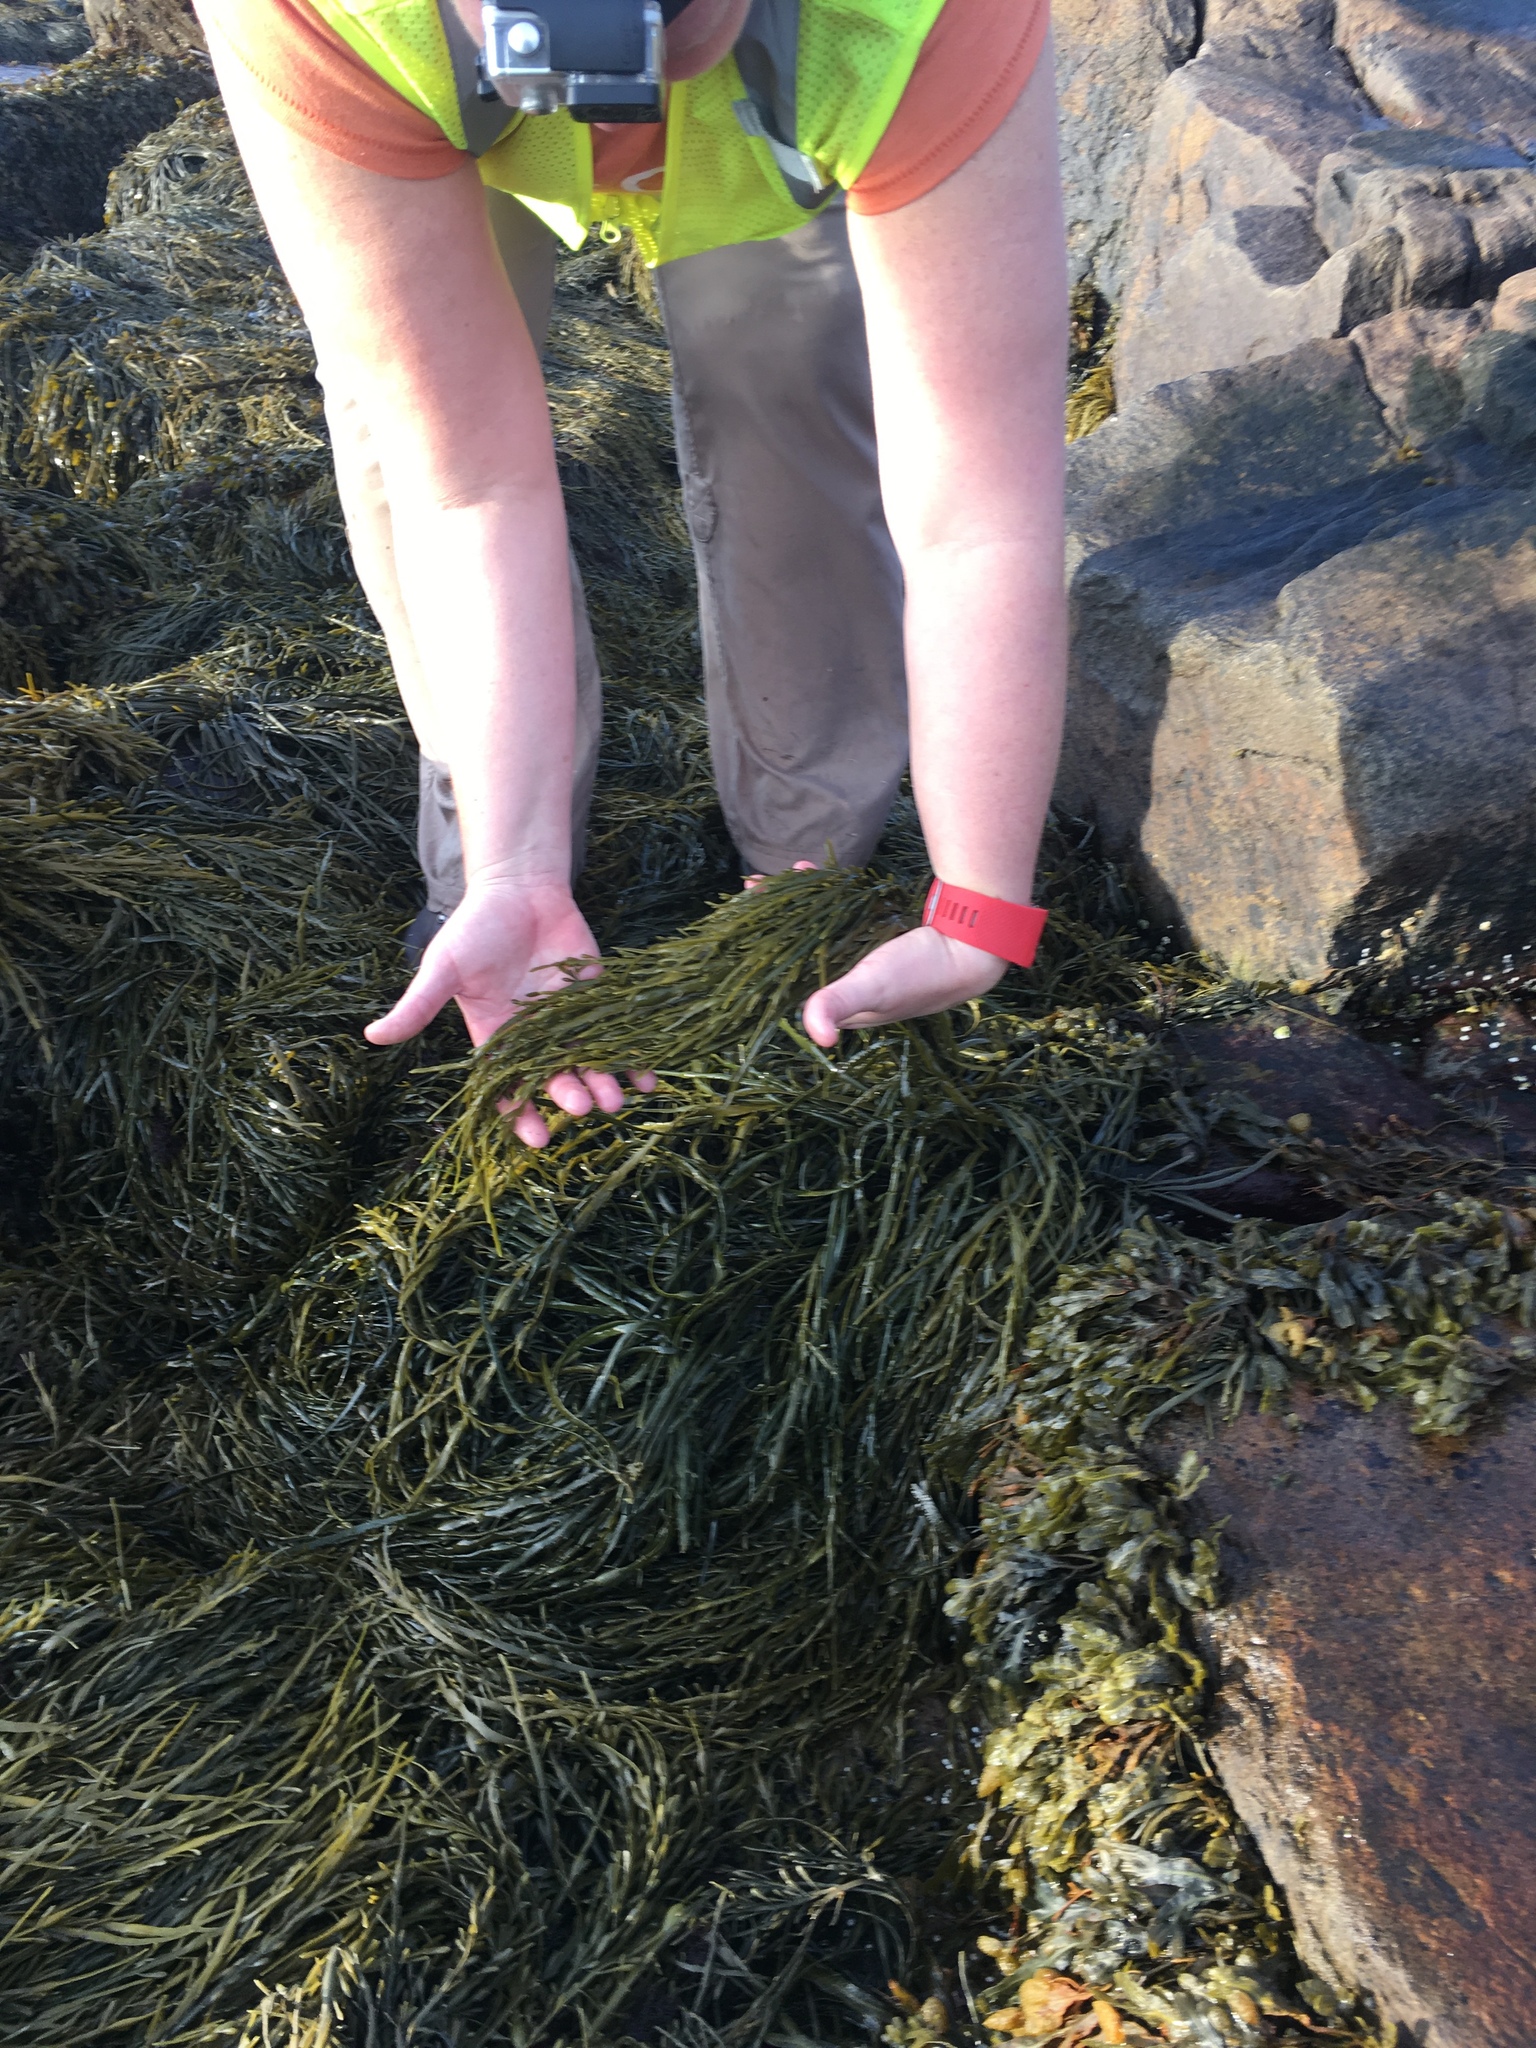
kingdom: Chromista
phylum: Ochrophyta
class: Phaeophyceae
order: Fucales
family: Fucaceae
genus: Ascophyllum
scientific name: Ascophyllum nodosum
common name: Knotted wrack
